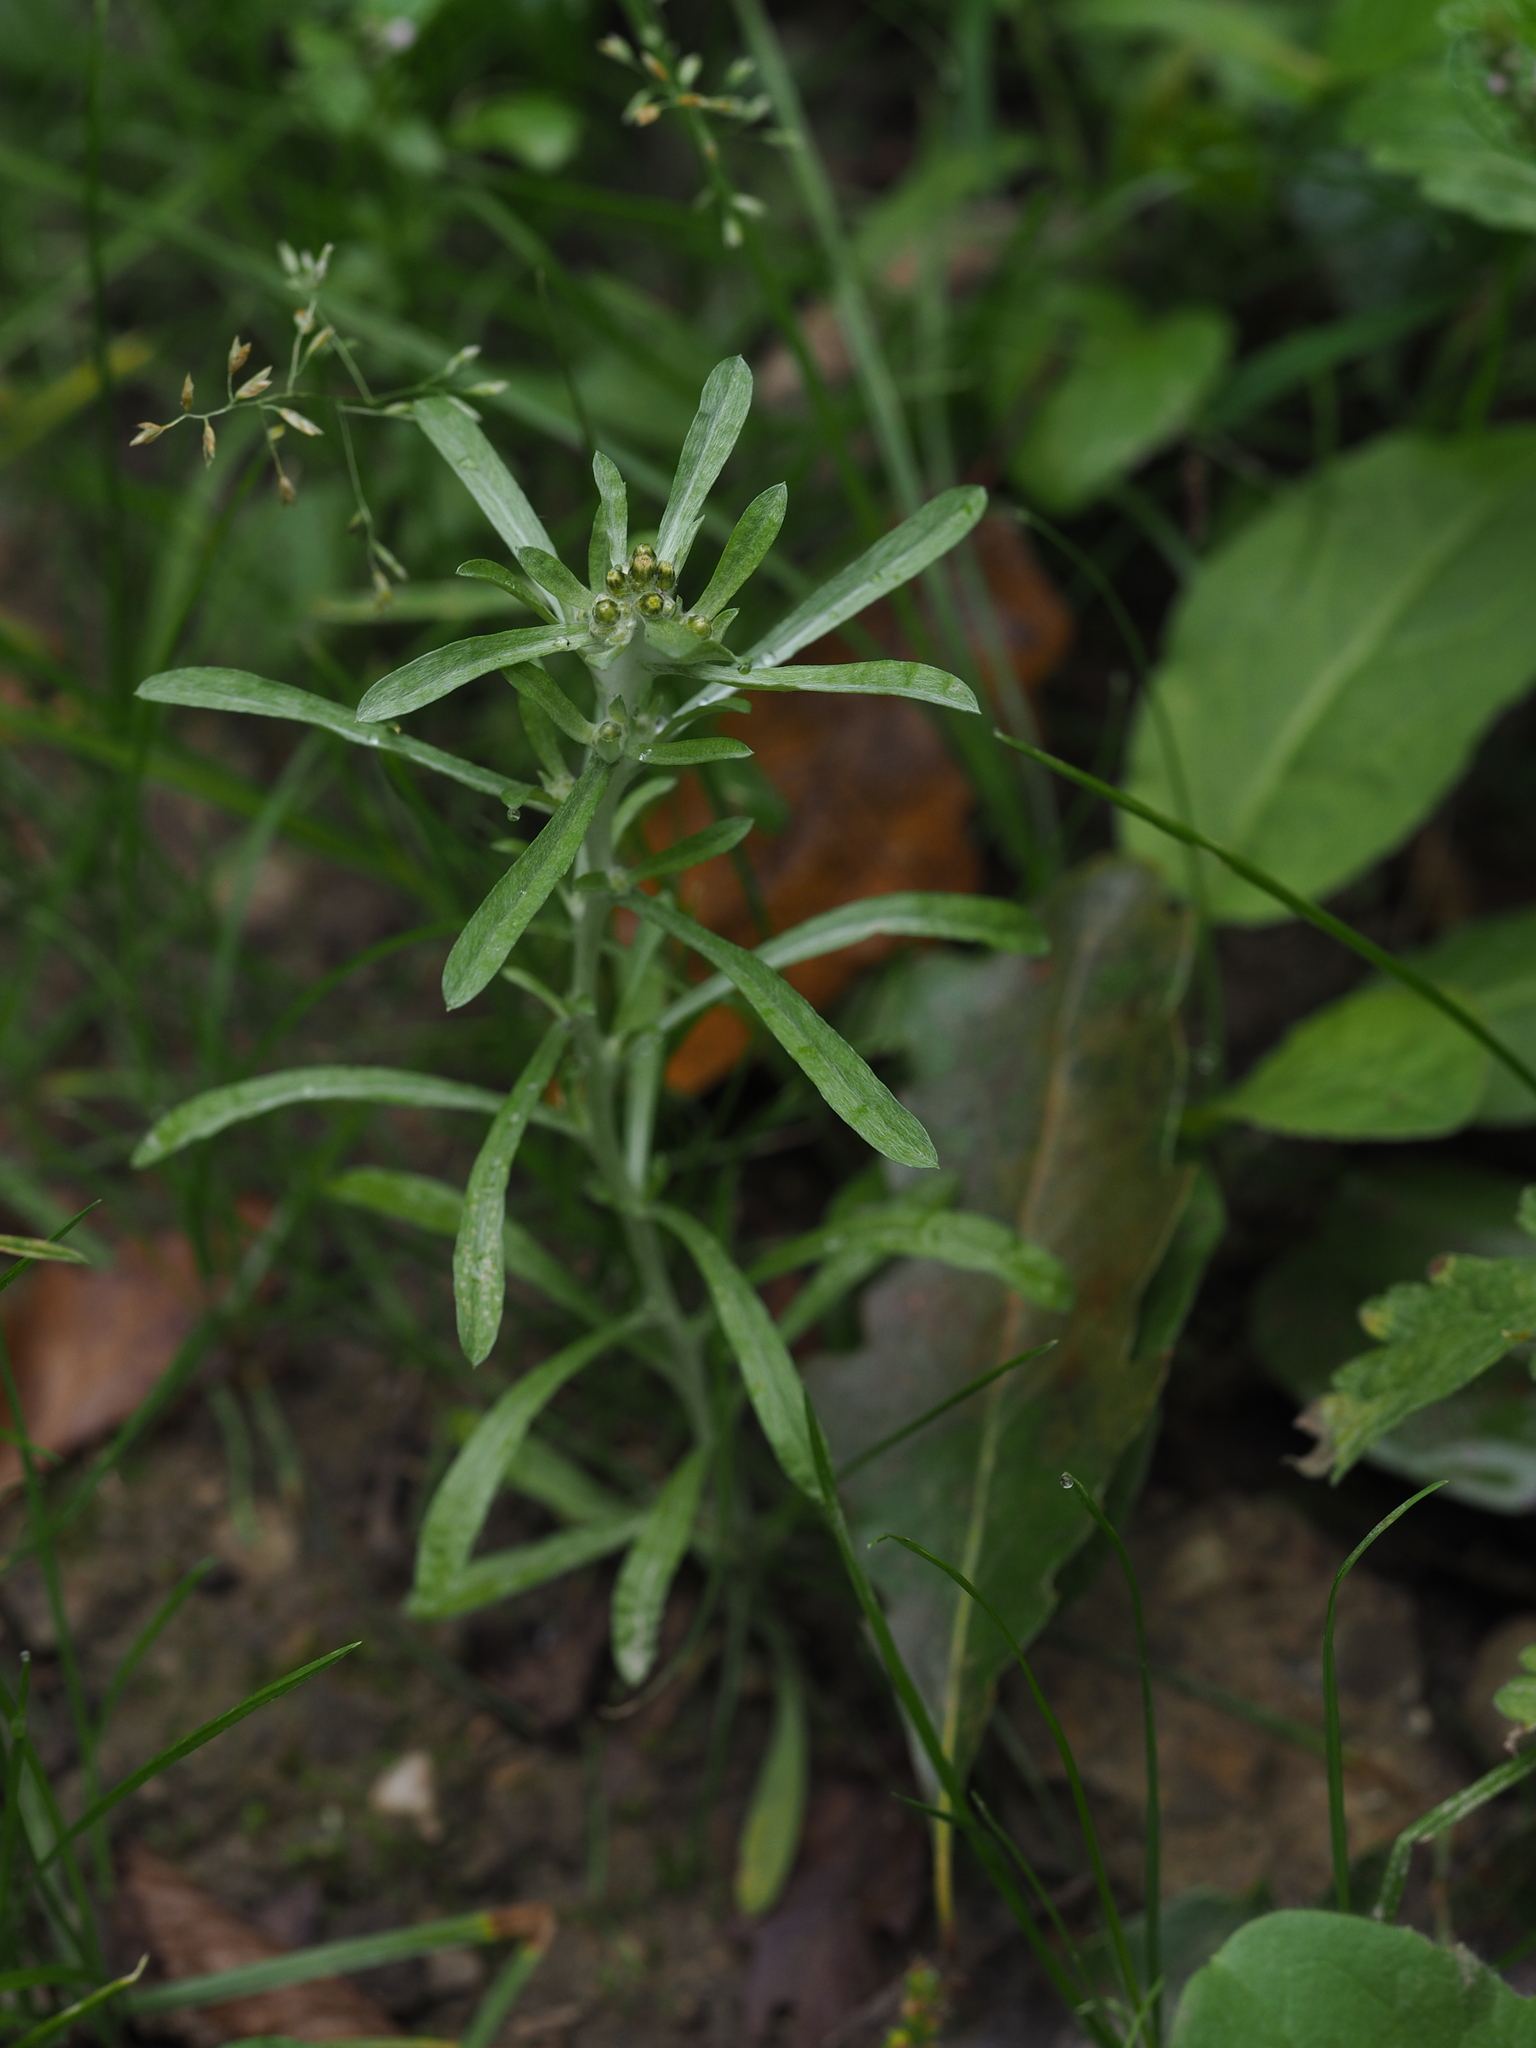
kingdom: Plantae
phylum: Tracheophyta
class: Magnoliopsida
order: Asterales
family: Asteraceae
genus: Gnaphalium
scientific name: Gnaphalium uliginosum
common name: Marsh cudweed
